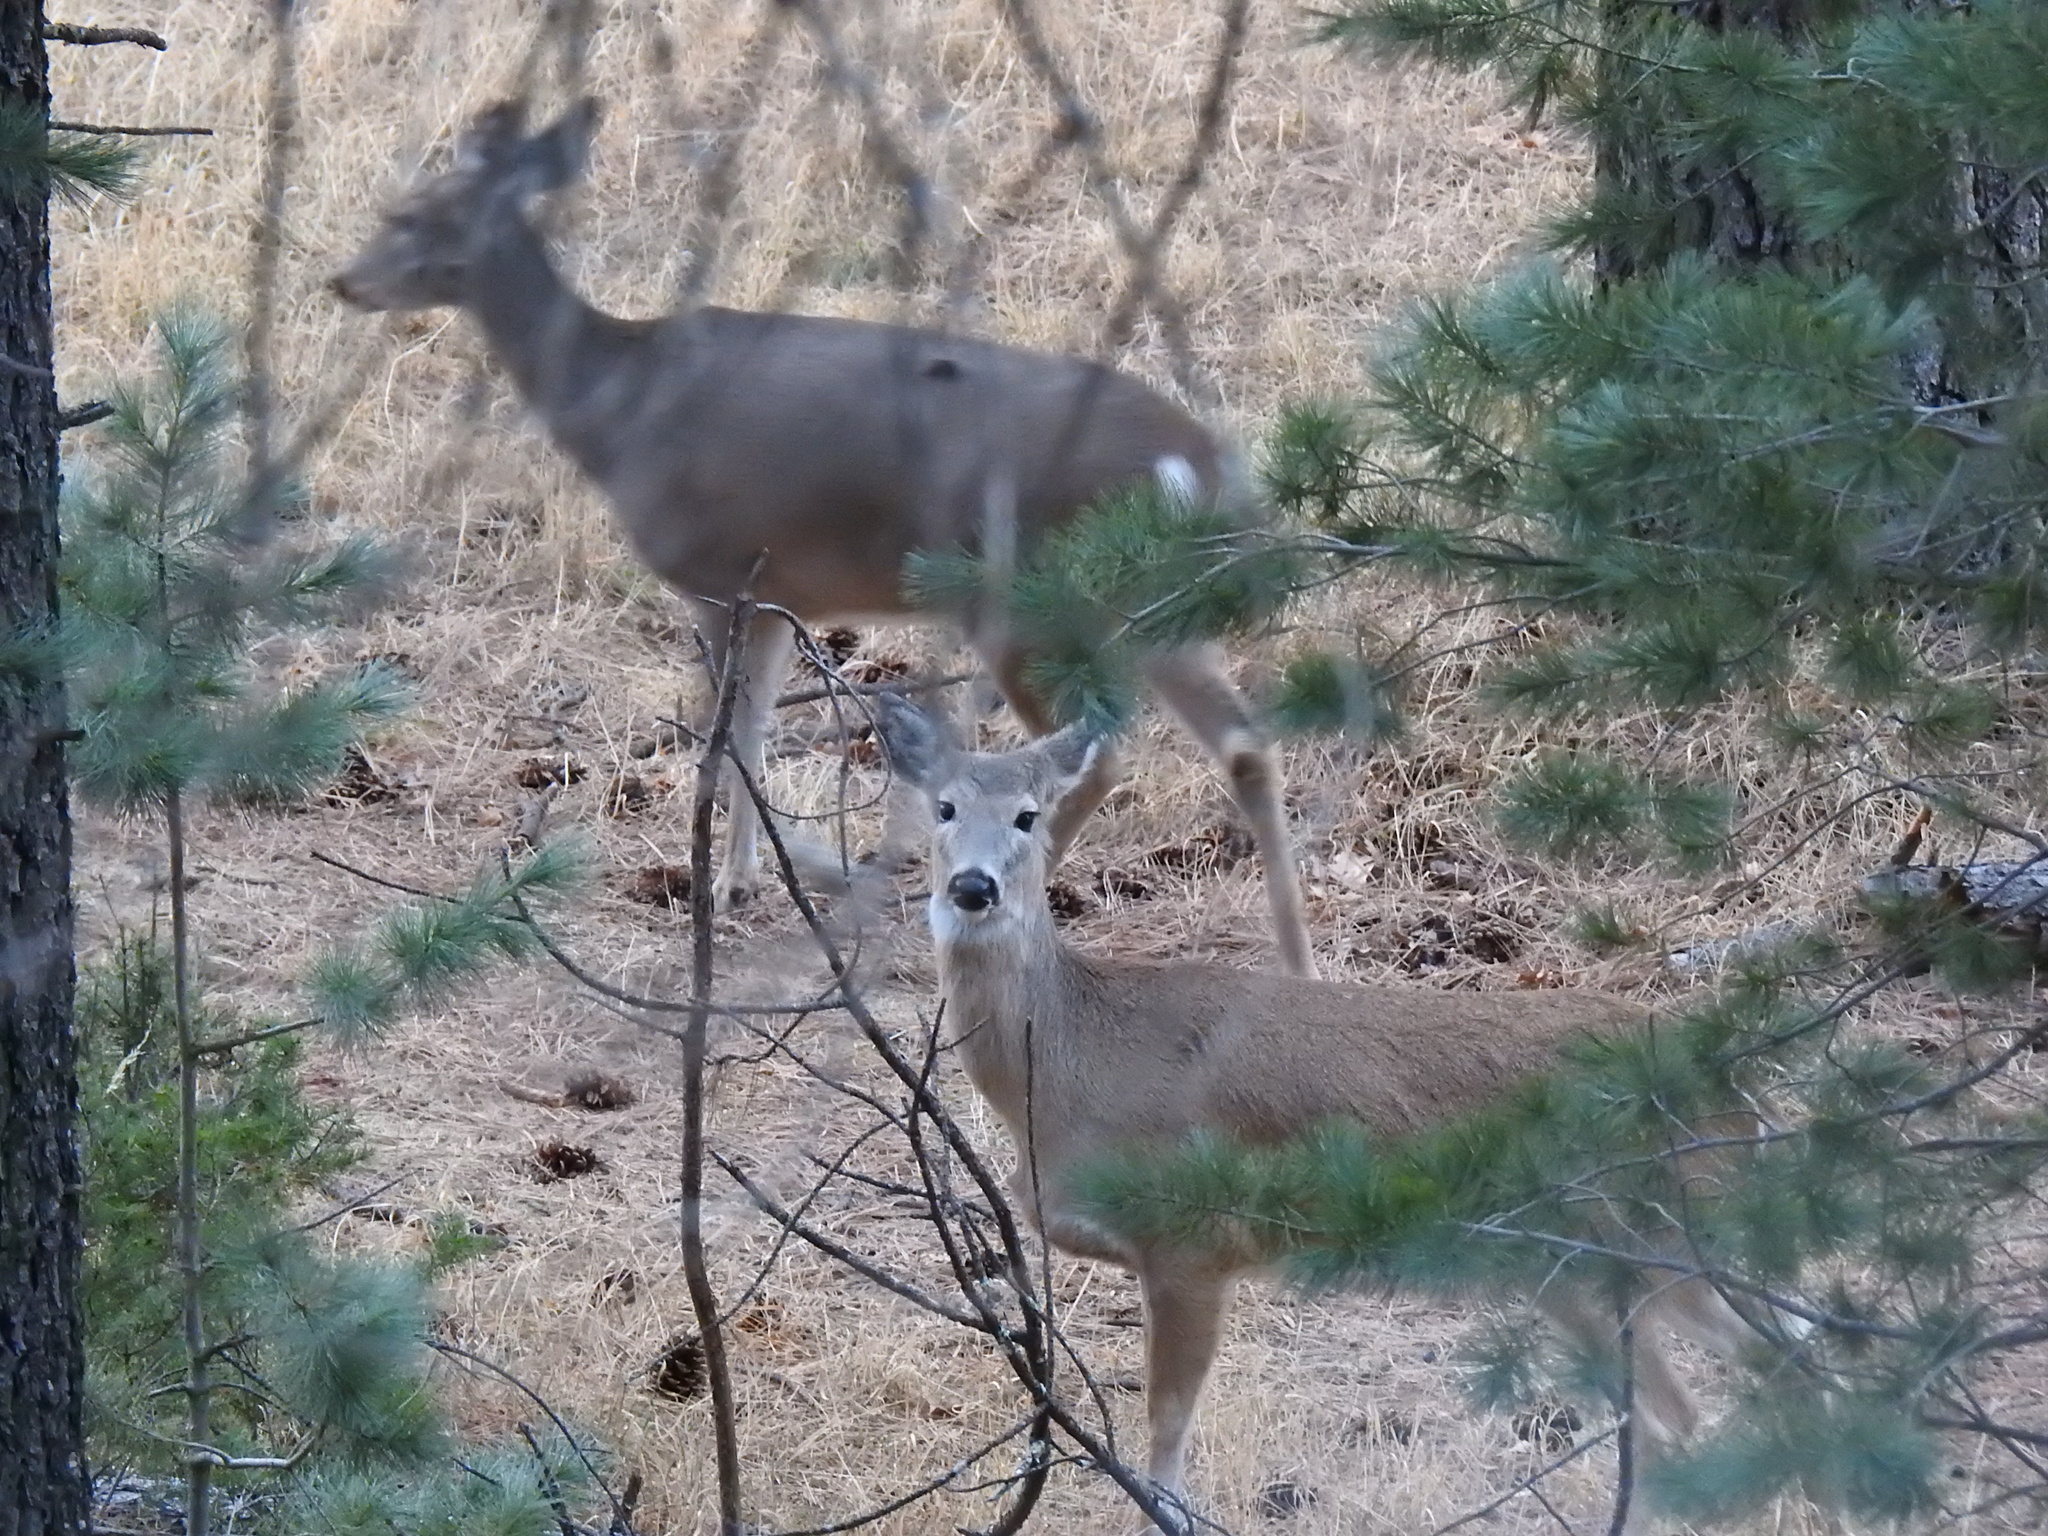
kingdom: Animalia
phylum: Chordata
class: Mammalia
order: Artiodactyla
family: Cervidae
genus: Odocoileus
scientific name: Odocoileus virginianus
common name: White-tailed deer
